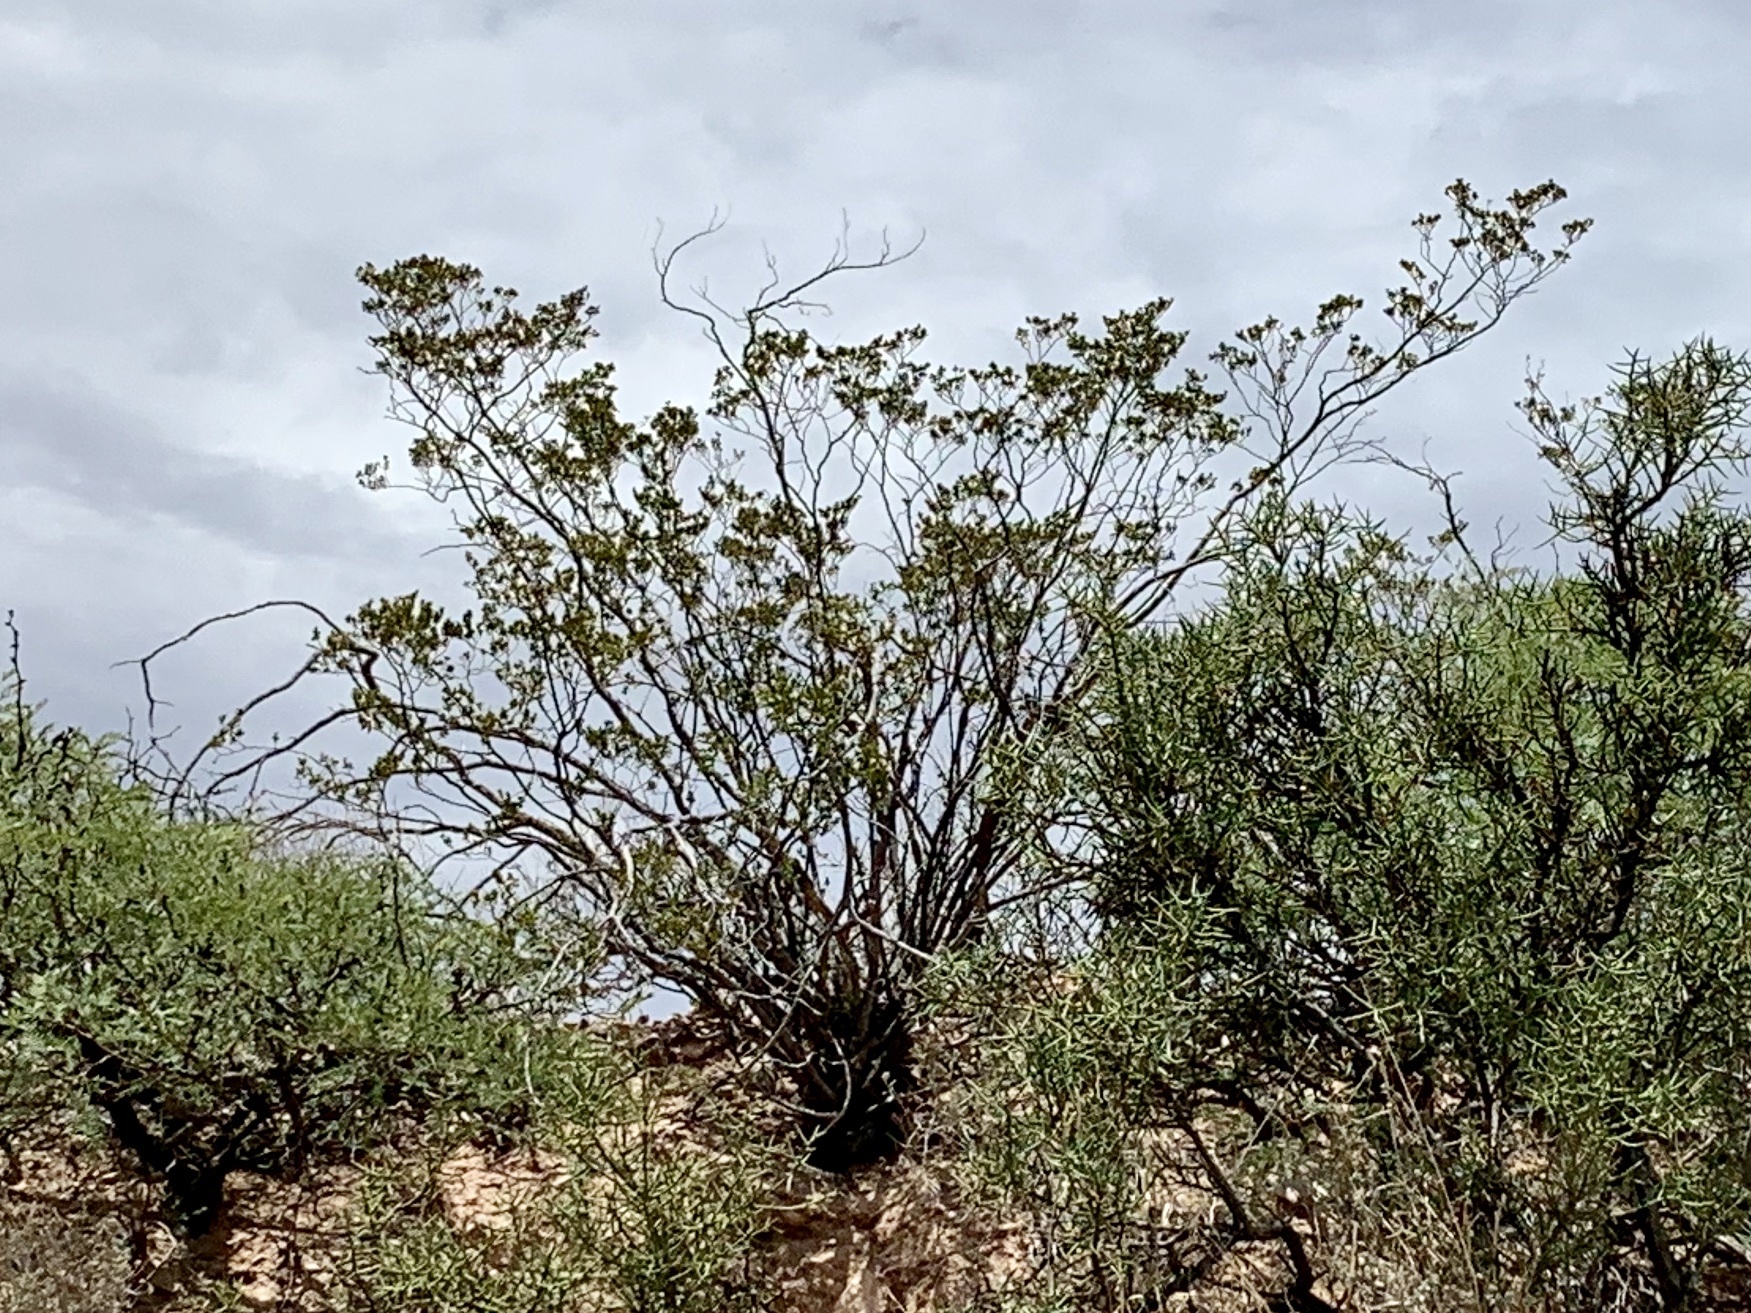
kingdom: Plantae
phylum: Tracheophyta
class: Magnoliopsida
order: Zygophyllales
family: Zygophyllaceae
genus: Larrea
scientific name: Larrea tridentata
